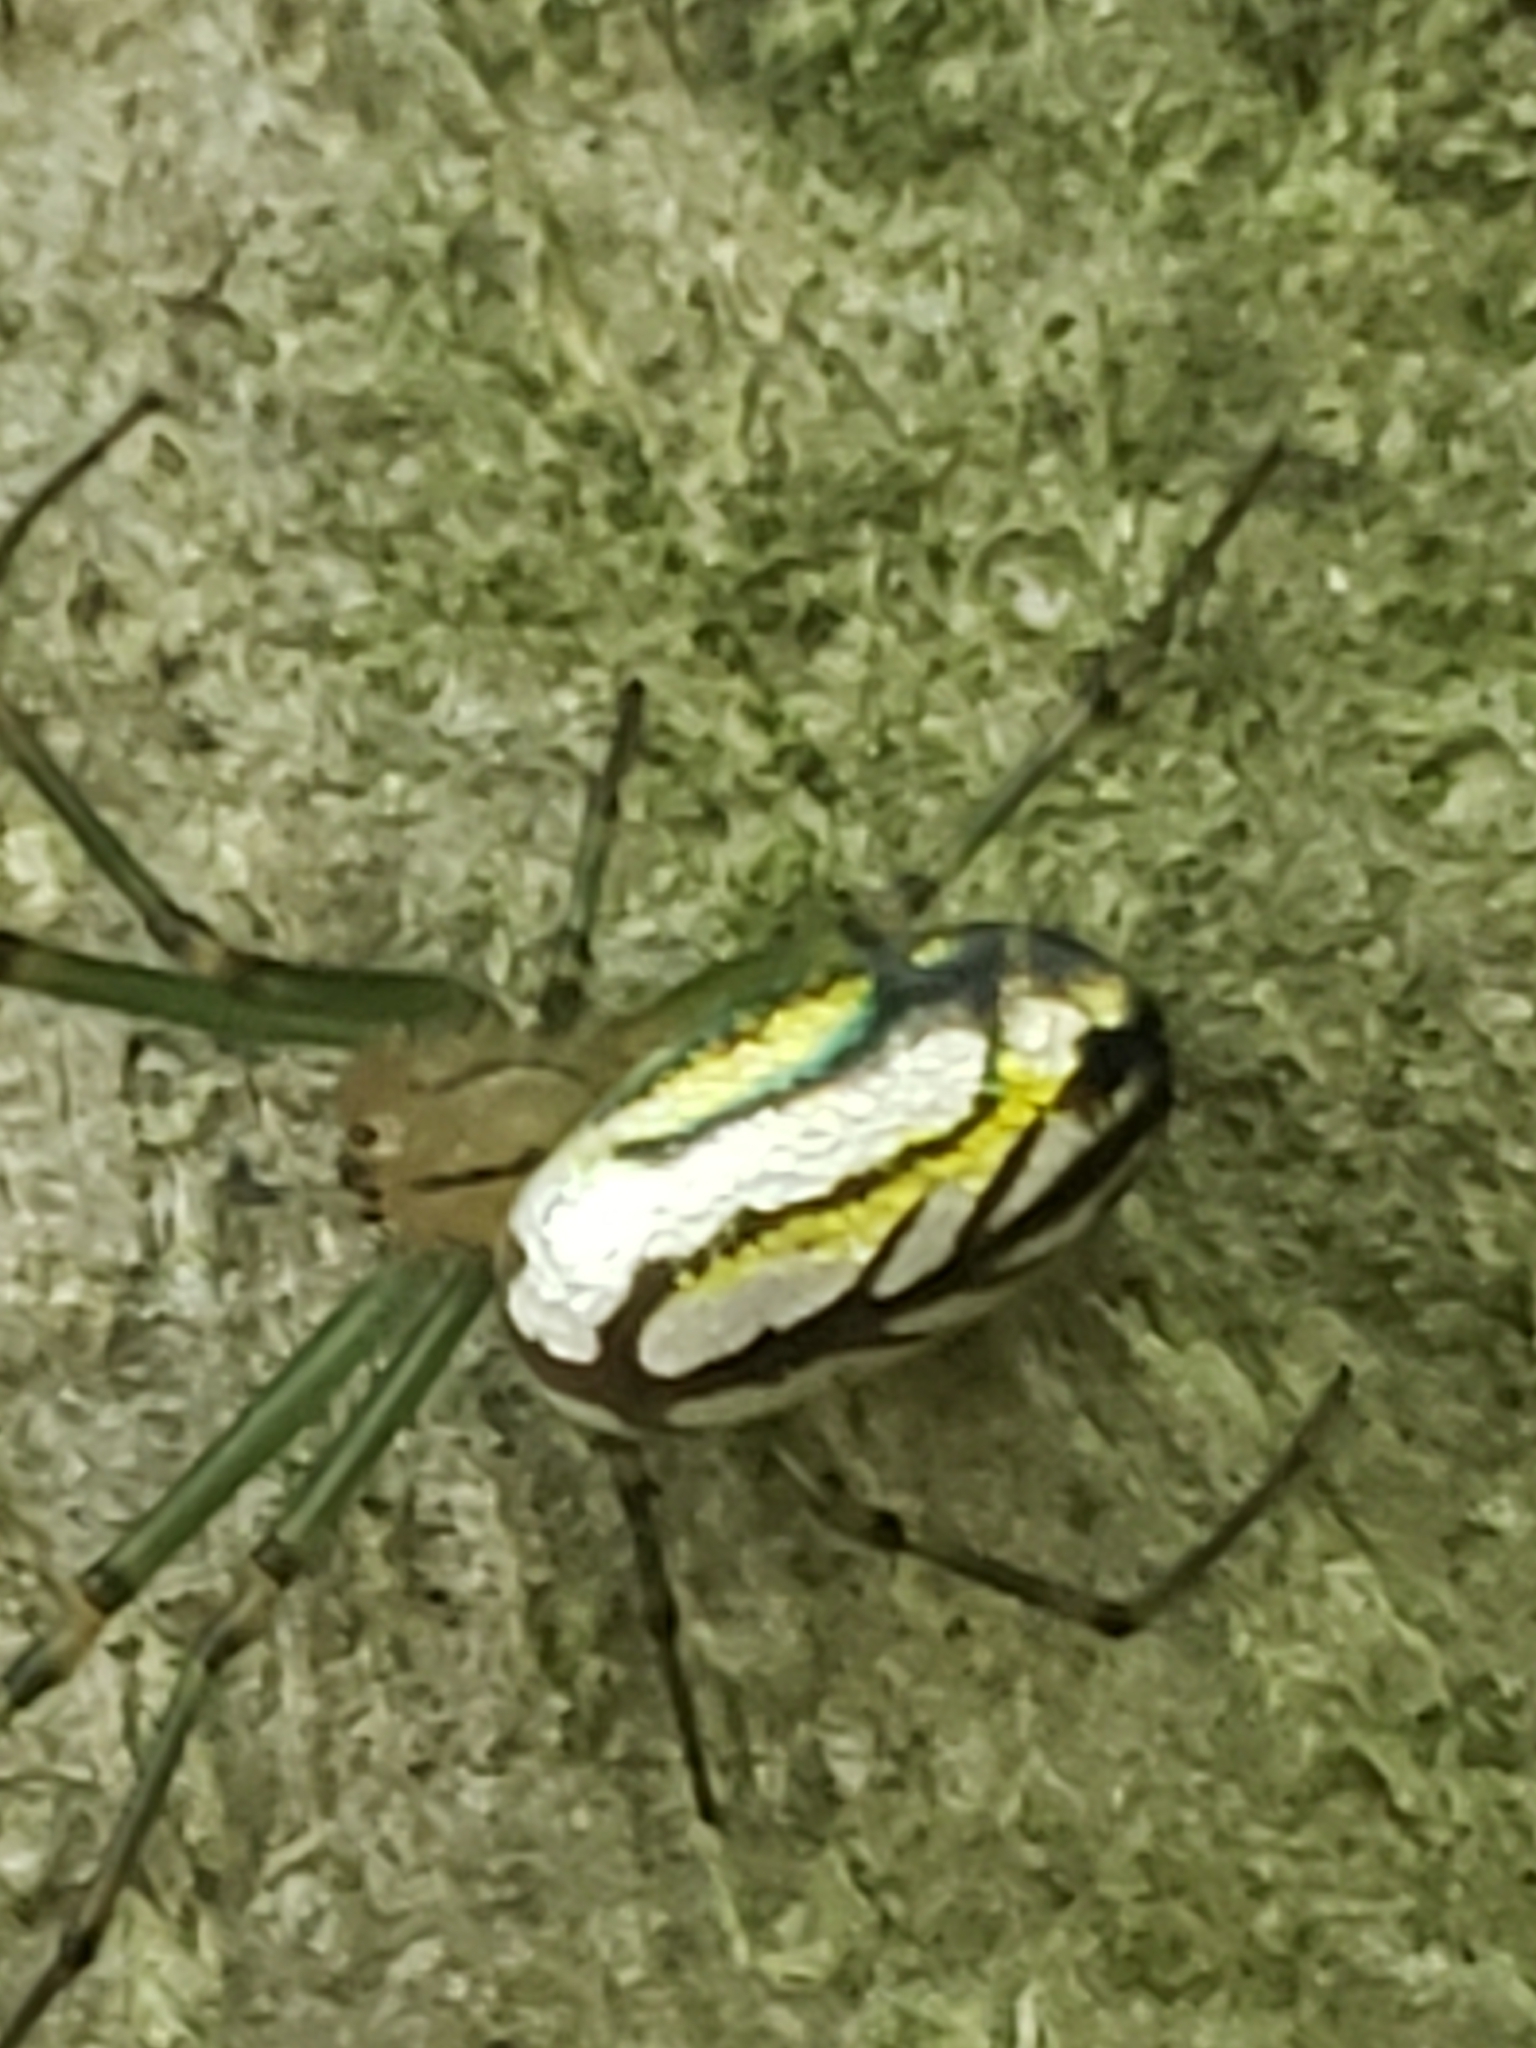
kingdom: Animalia
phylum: Arthropoda
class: Arachnida
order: Araneae
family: Tetragnathidae
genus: Leucauge
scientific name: Leucauge venusta
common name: Longjawed orb weavers
